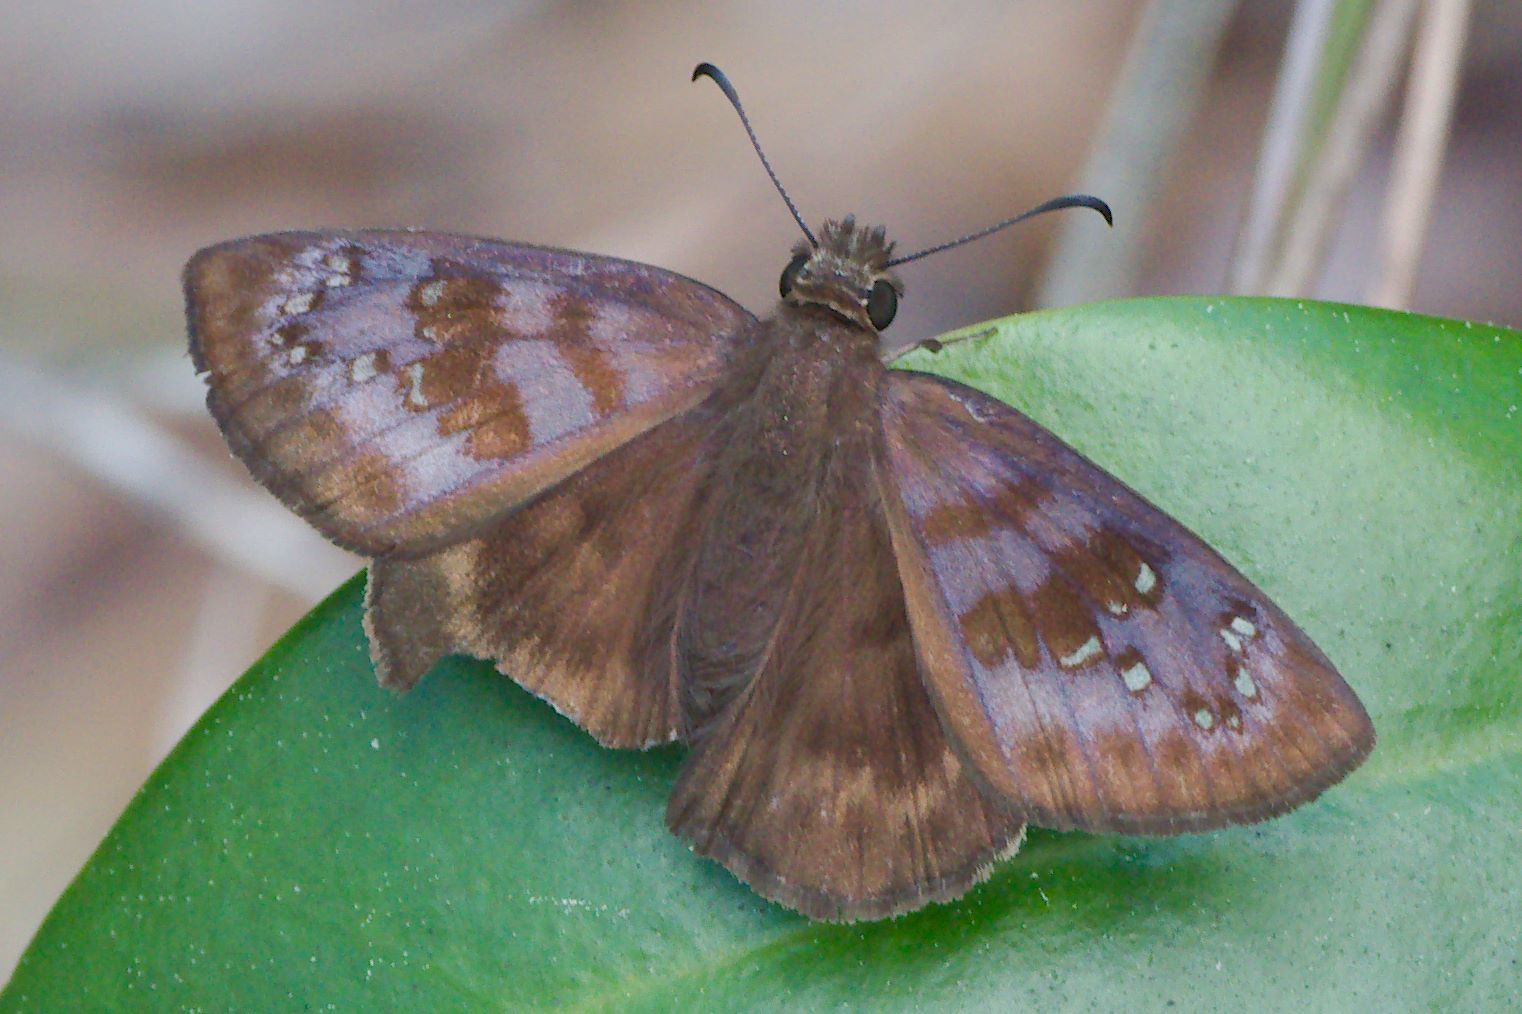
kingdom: Animalia
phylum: Arthropoda
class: Insecta
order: Lepidoptera
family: Hesperiidae
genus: Ephyriades
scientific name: Ephyriades brunnea
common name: Florida duskywing
